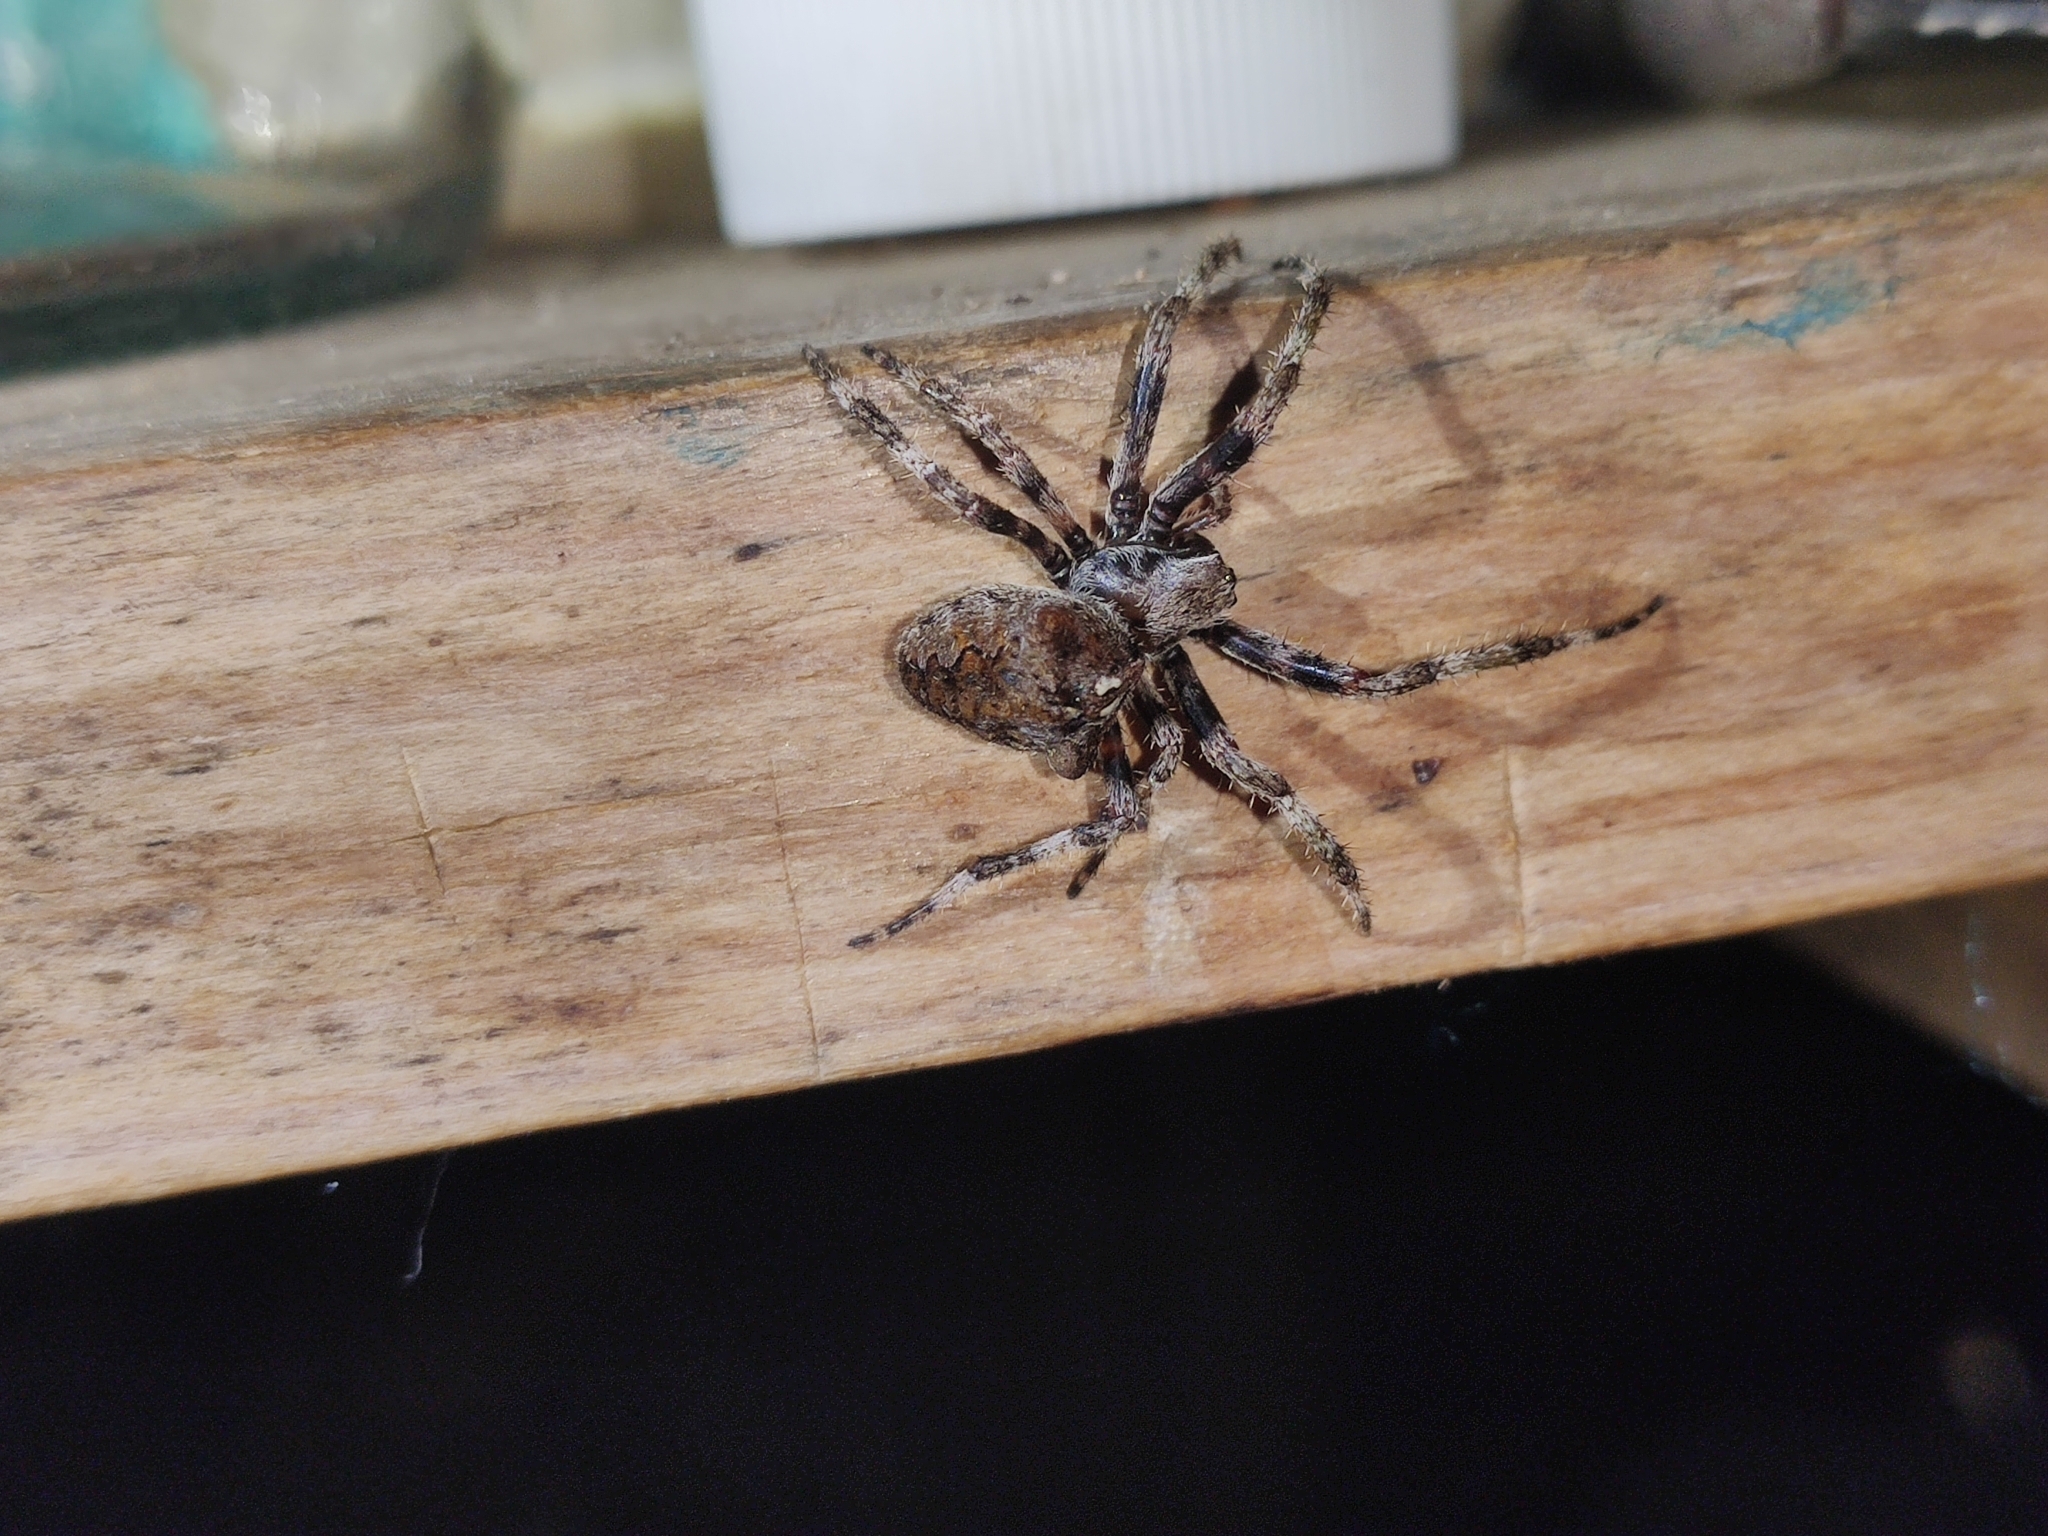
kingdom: Animalia
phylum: Arthropoda
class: Arachnida
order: Araneae
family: Araneidae
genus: Araneus
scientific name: Araneus angulatus
